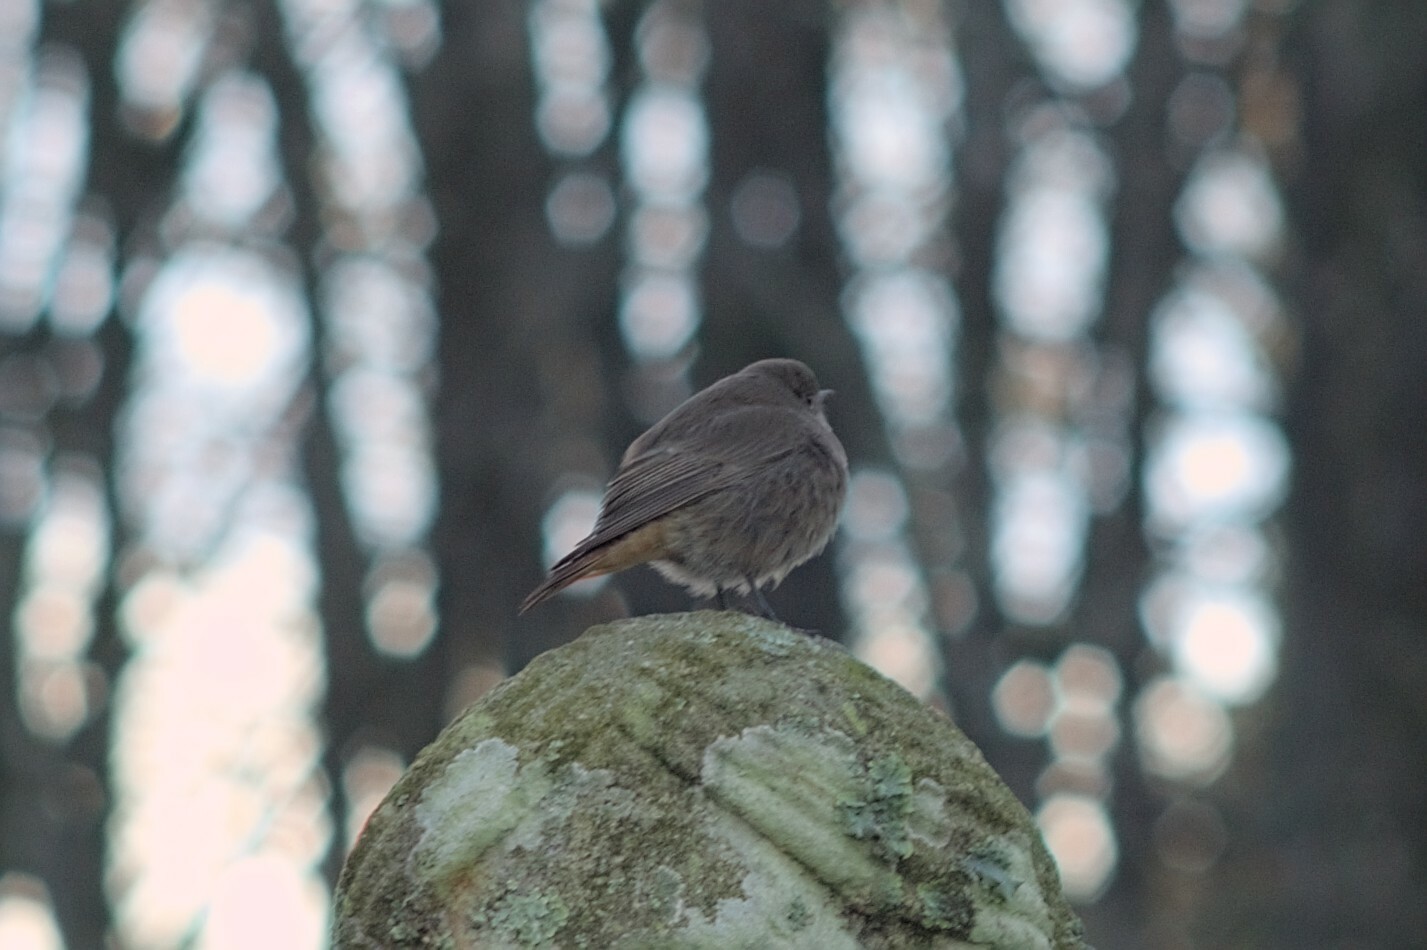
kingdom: Animalia
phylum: Chordata
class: Aves
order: Passeriformes
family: Muscicapidae
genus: Phoenicurus
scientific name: Phoenicurus ochruros
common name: Black redstart
